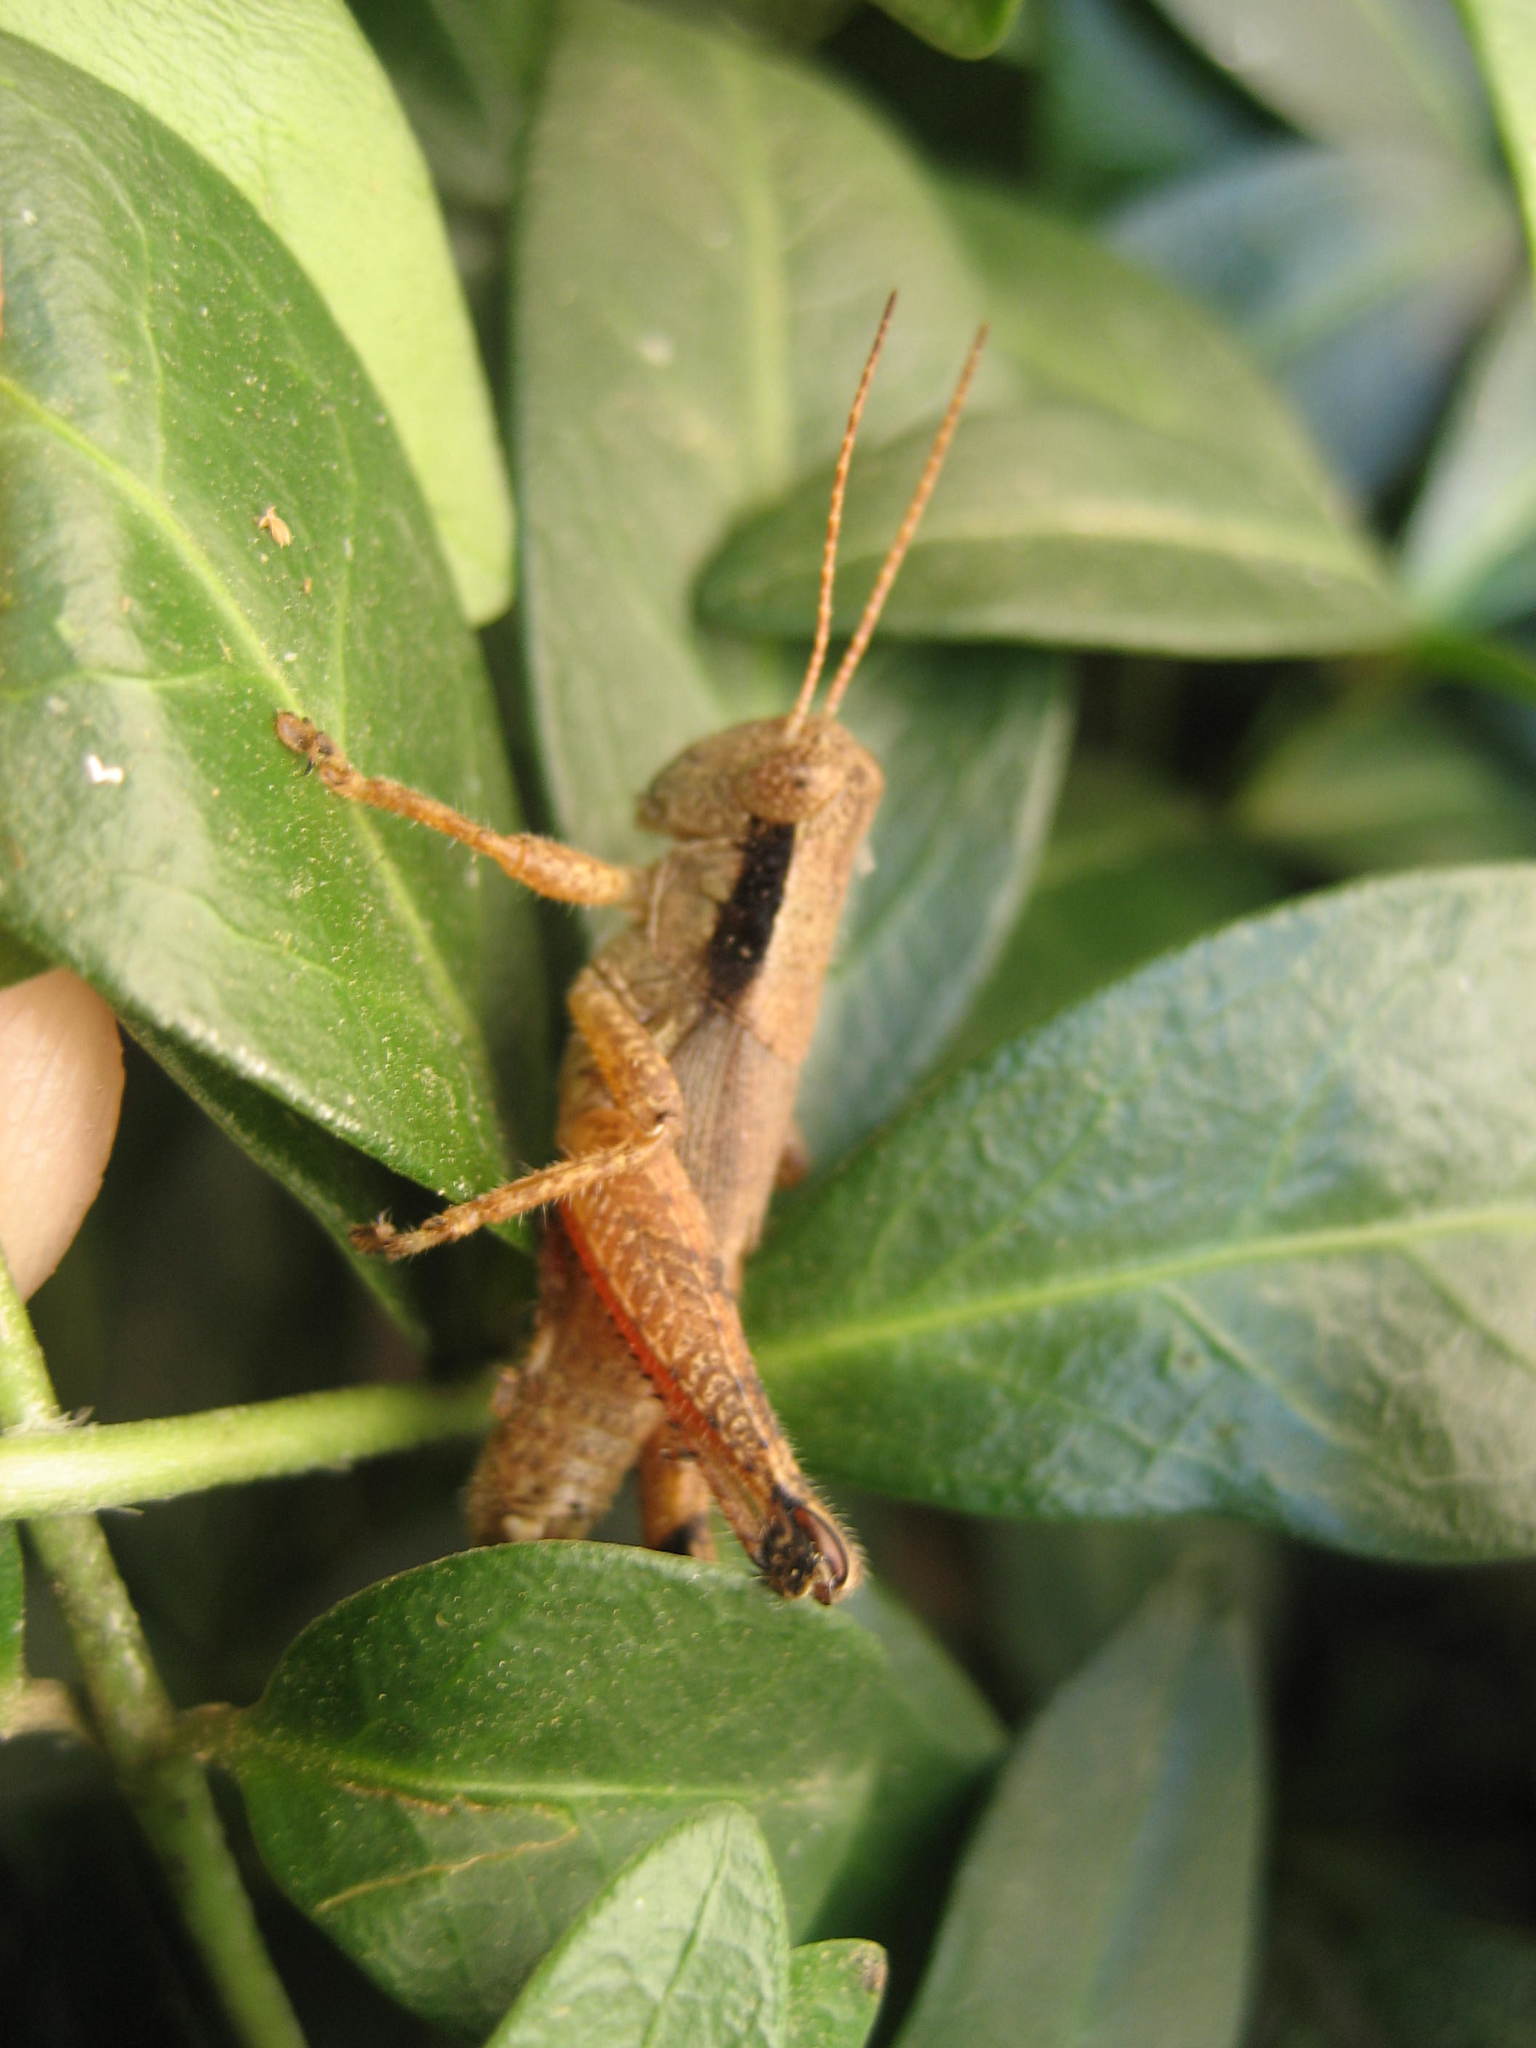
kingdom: Animalia
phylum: Arthropoda
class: Insecta
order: Orthoptera
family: Acrididae
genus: Melanoplus
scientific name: Melanoplus scudderi
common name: Scudder's short-winged locust
